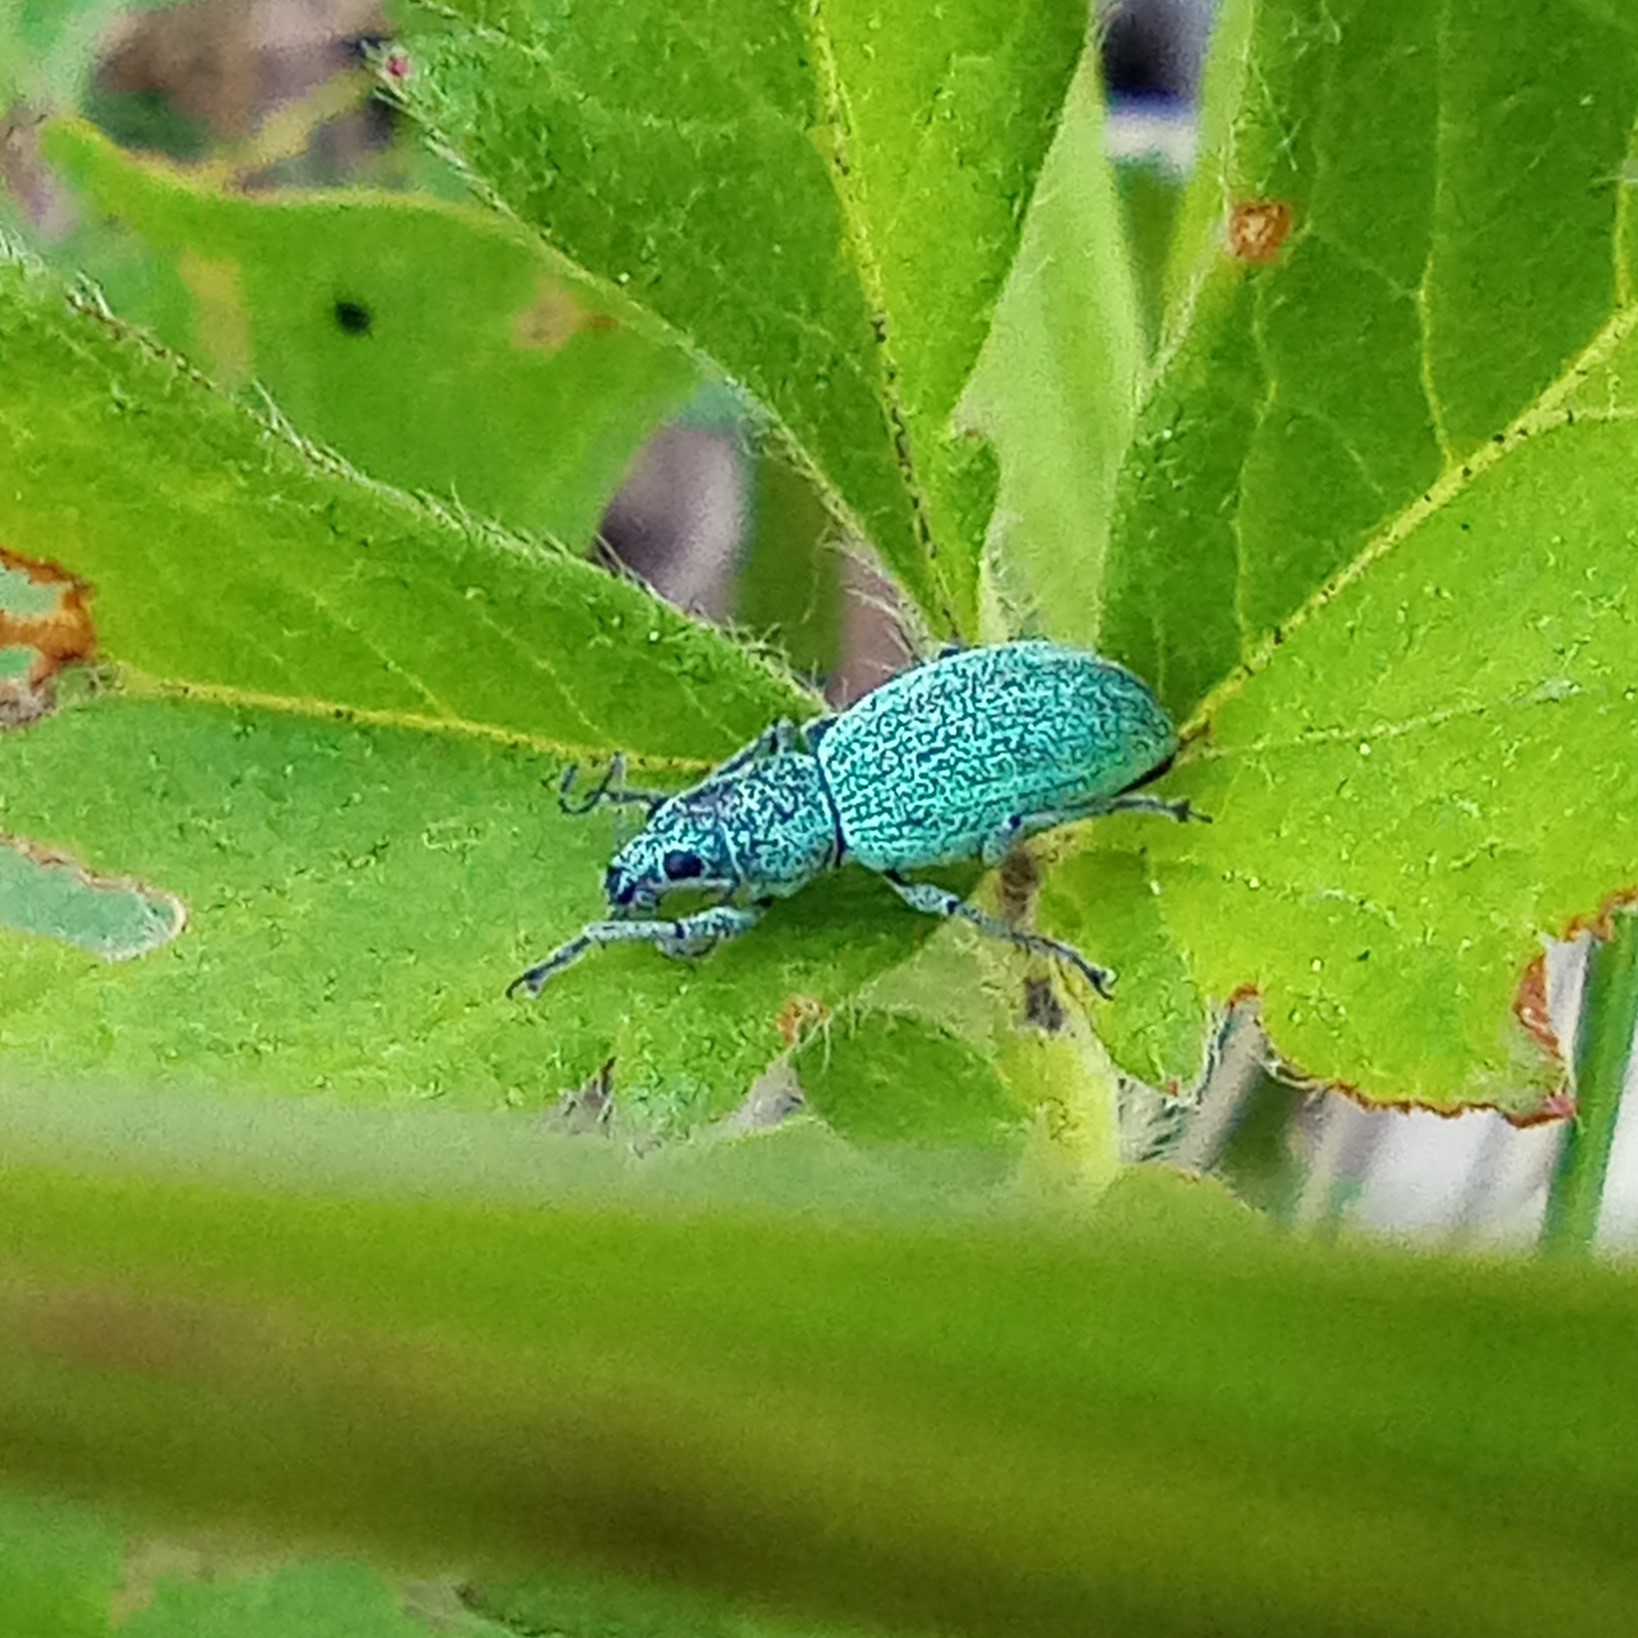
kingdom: Animalia
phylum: Arthropoda
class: Insecta
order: Coleoptera
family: Curculionidae
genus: Eusomus
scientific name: Eusomus ovulum
